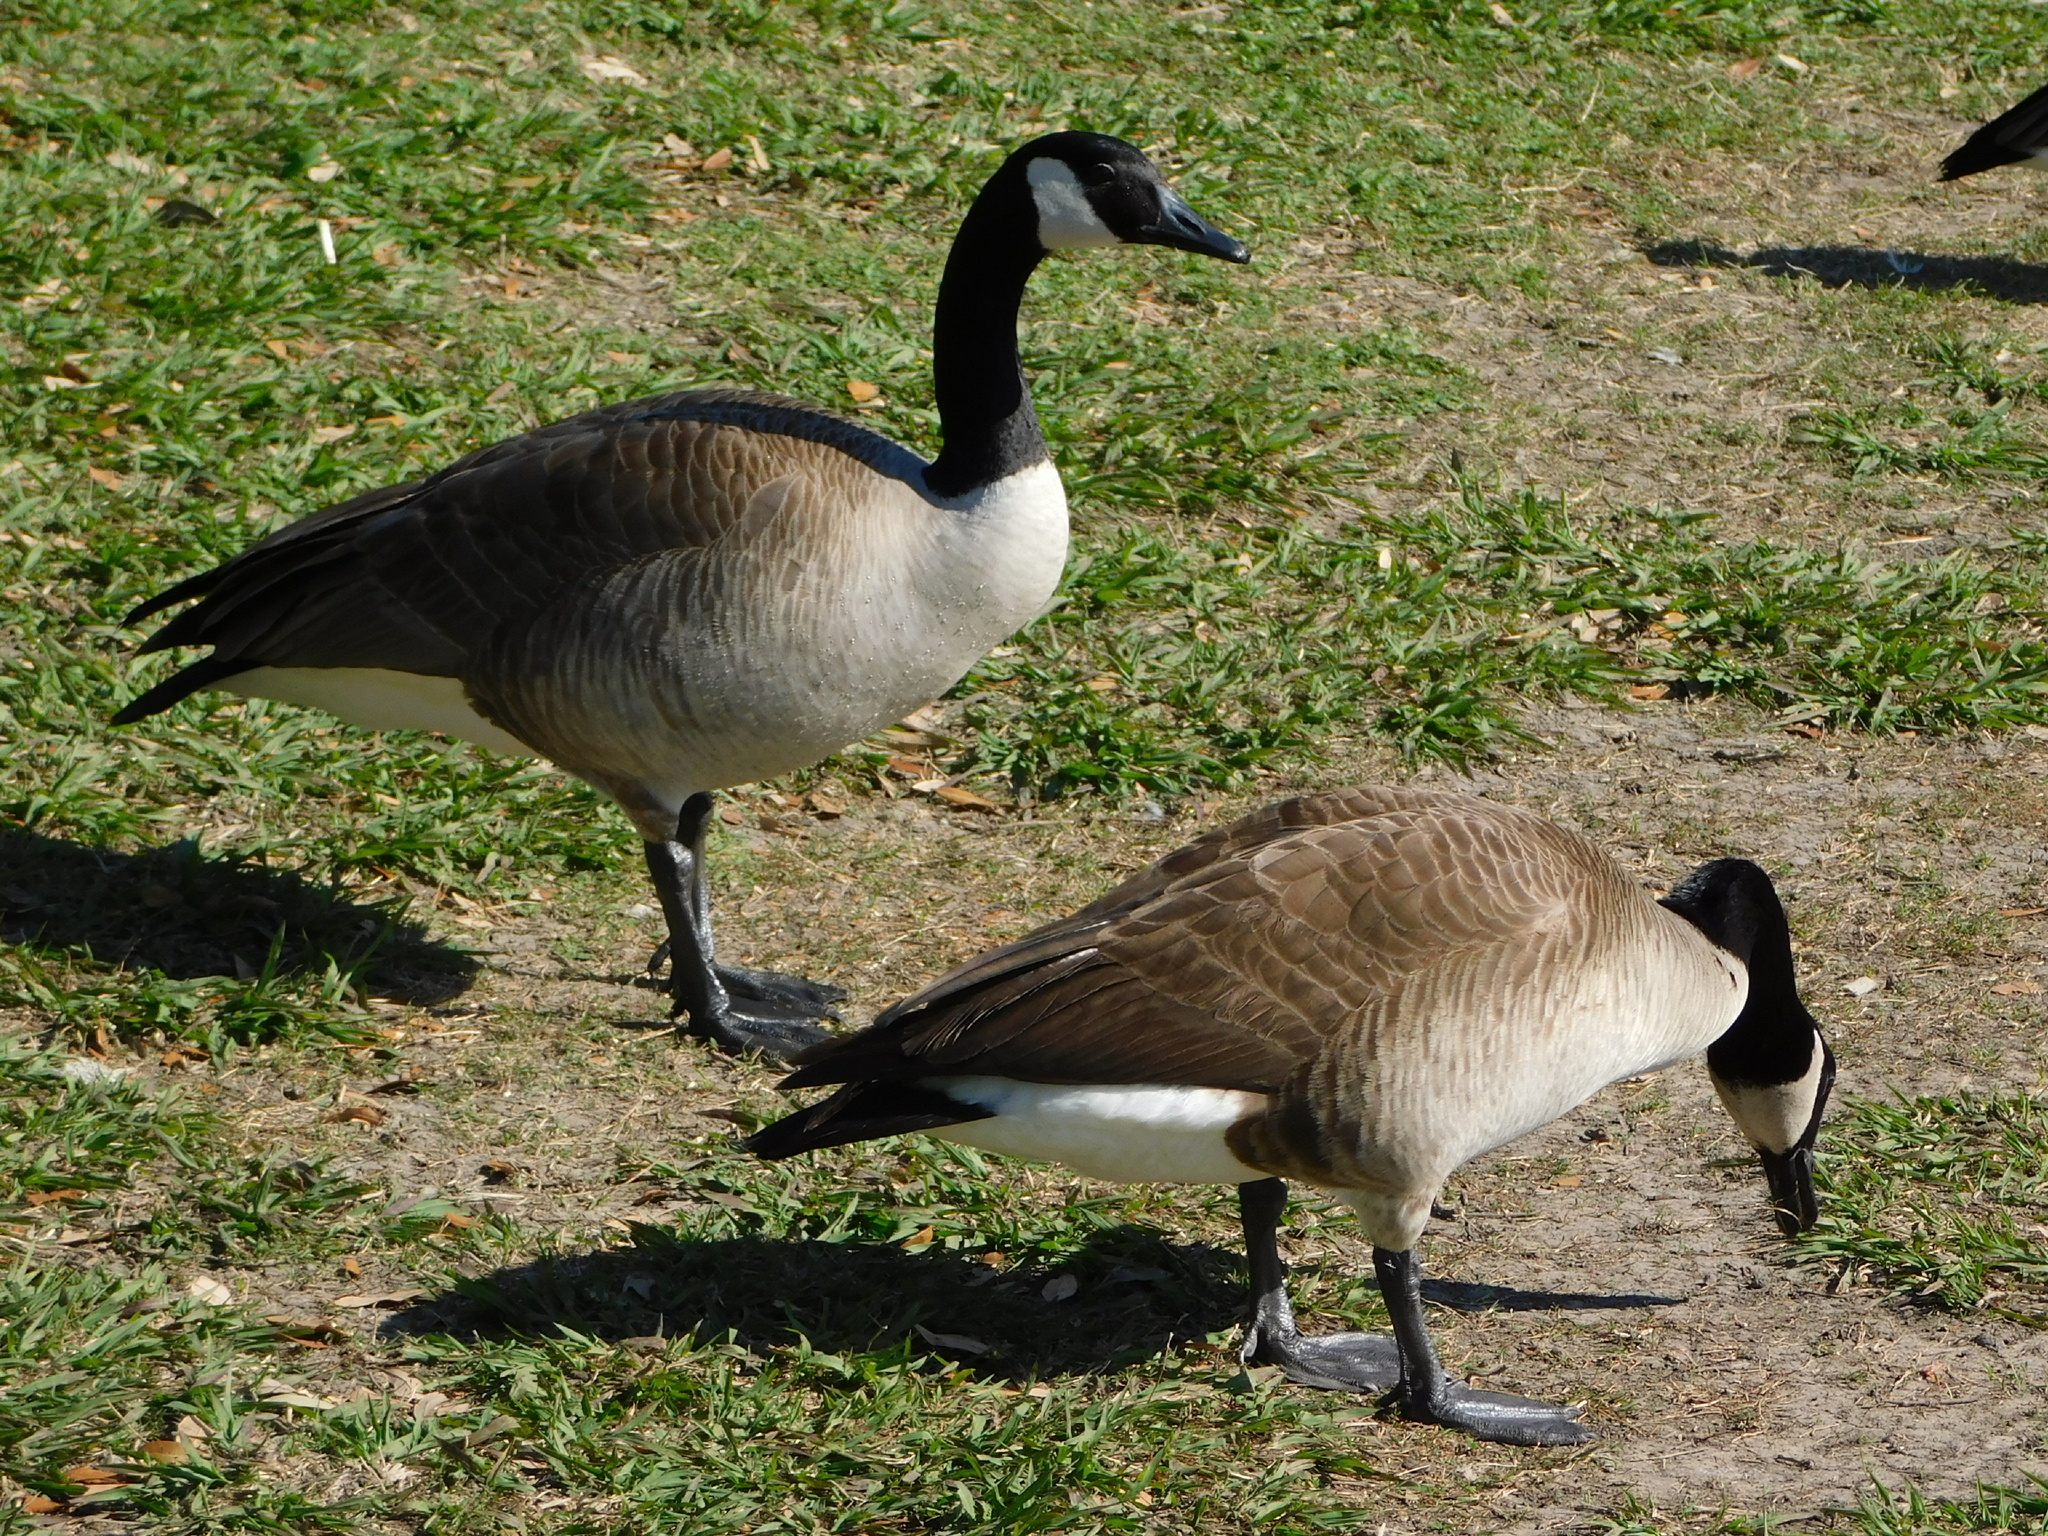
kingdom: Animalia
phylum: Chordata
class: Aves
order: Anseriformes
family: Anatidae
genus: Branta
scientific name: Branta canadensis
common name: Canada goose
